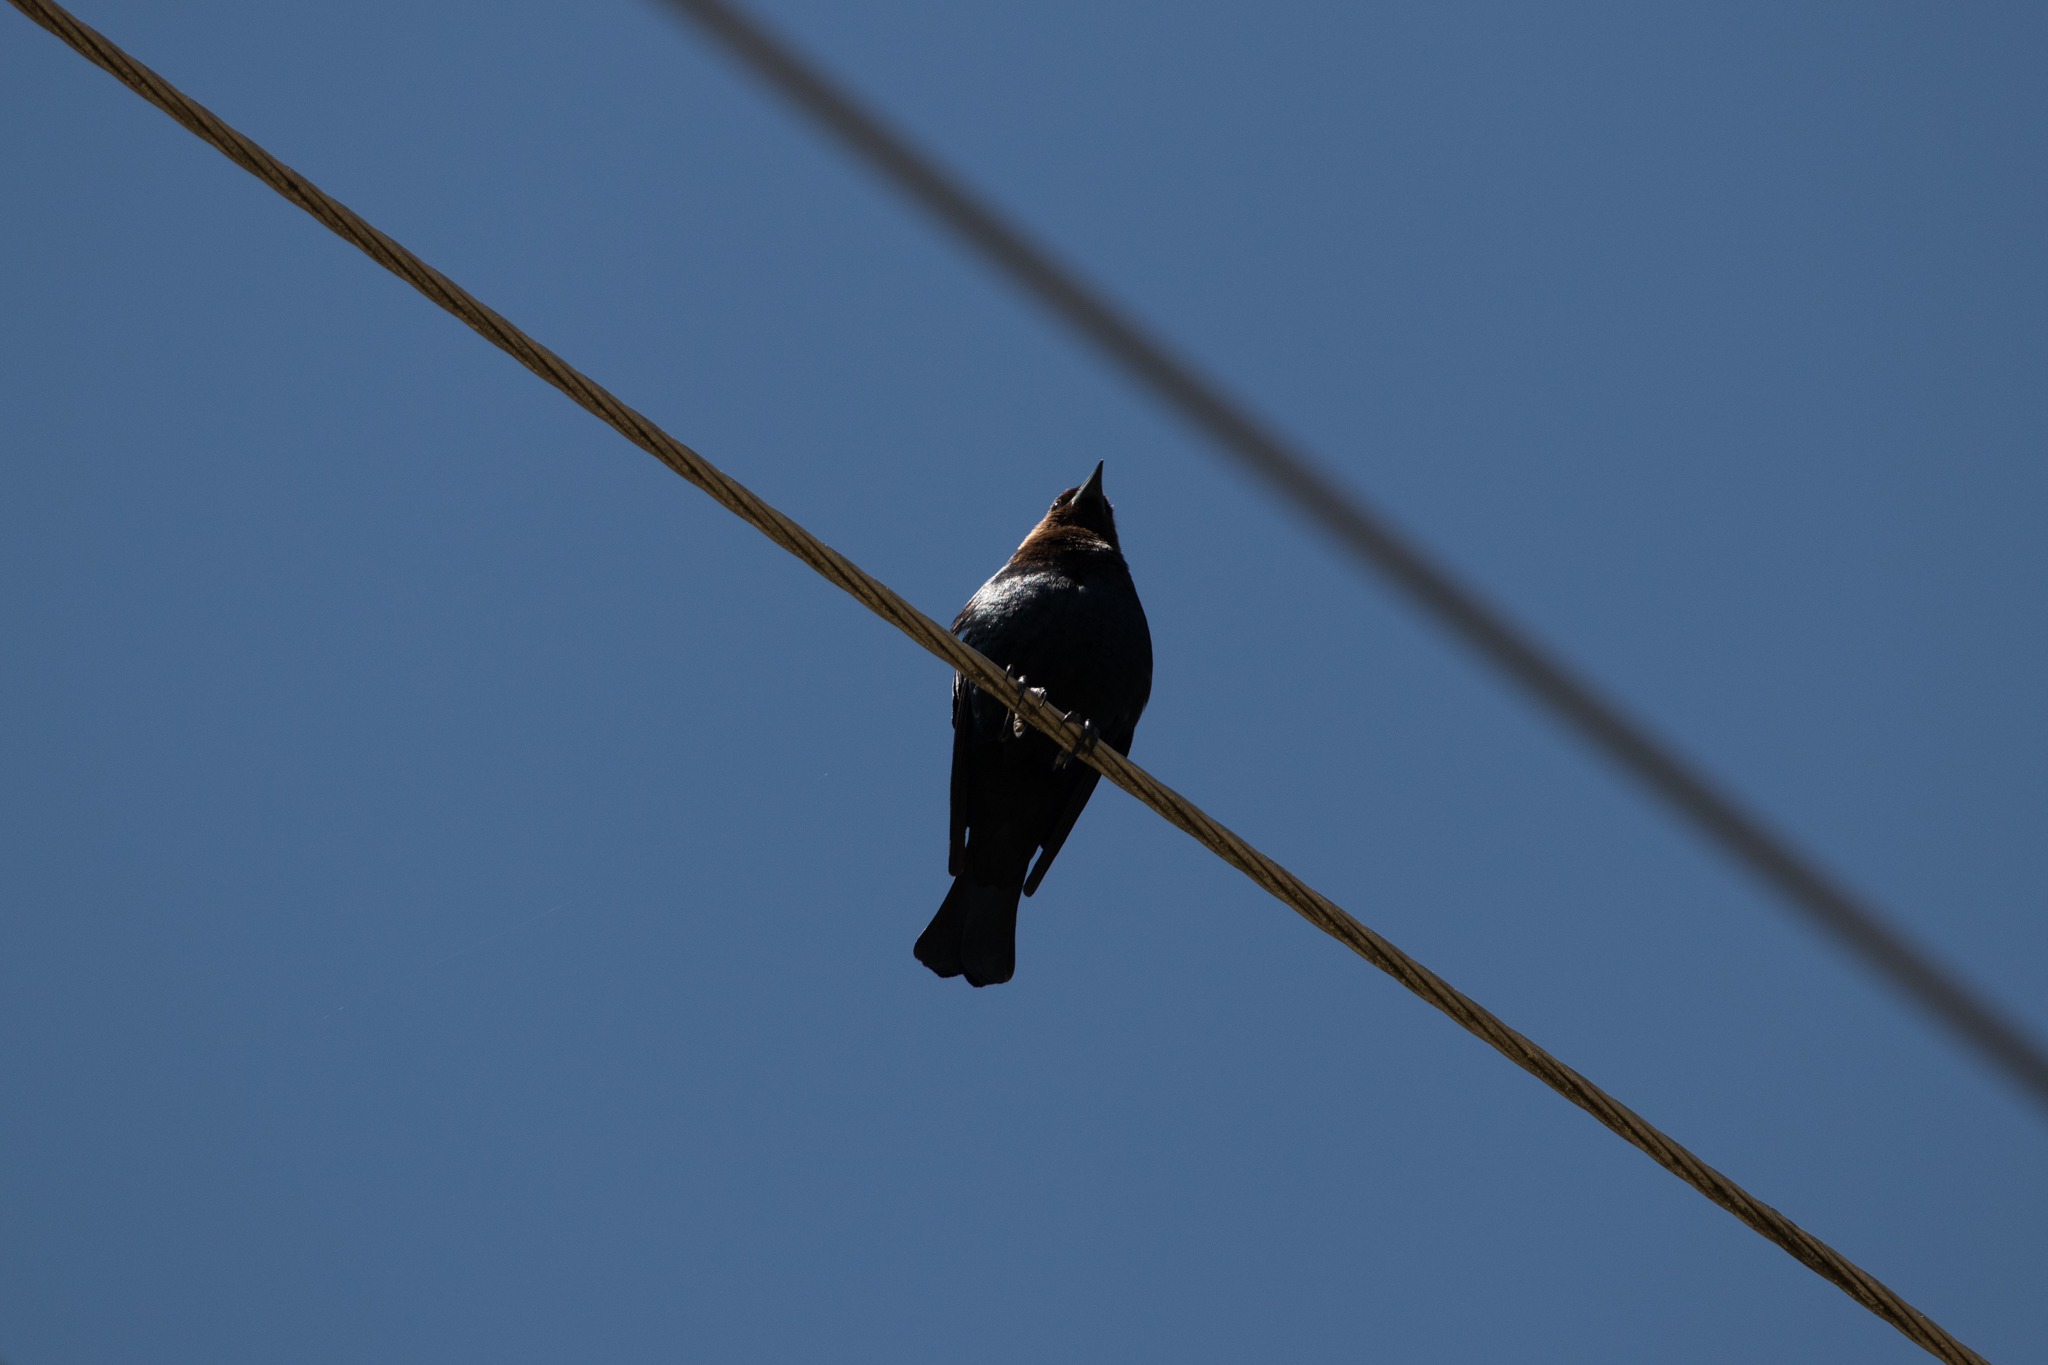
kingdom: Animalia
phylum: Chordata
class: Aves
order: Passeriformes
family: Icteridae
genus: Molothrus
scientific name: Molothrus ater
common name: Brown-headed cowbird
